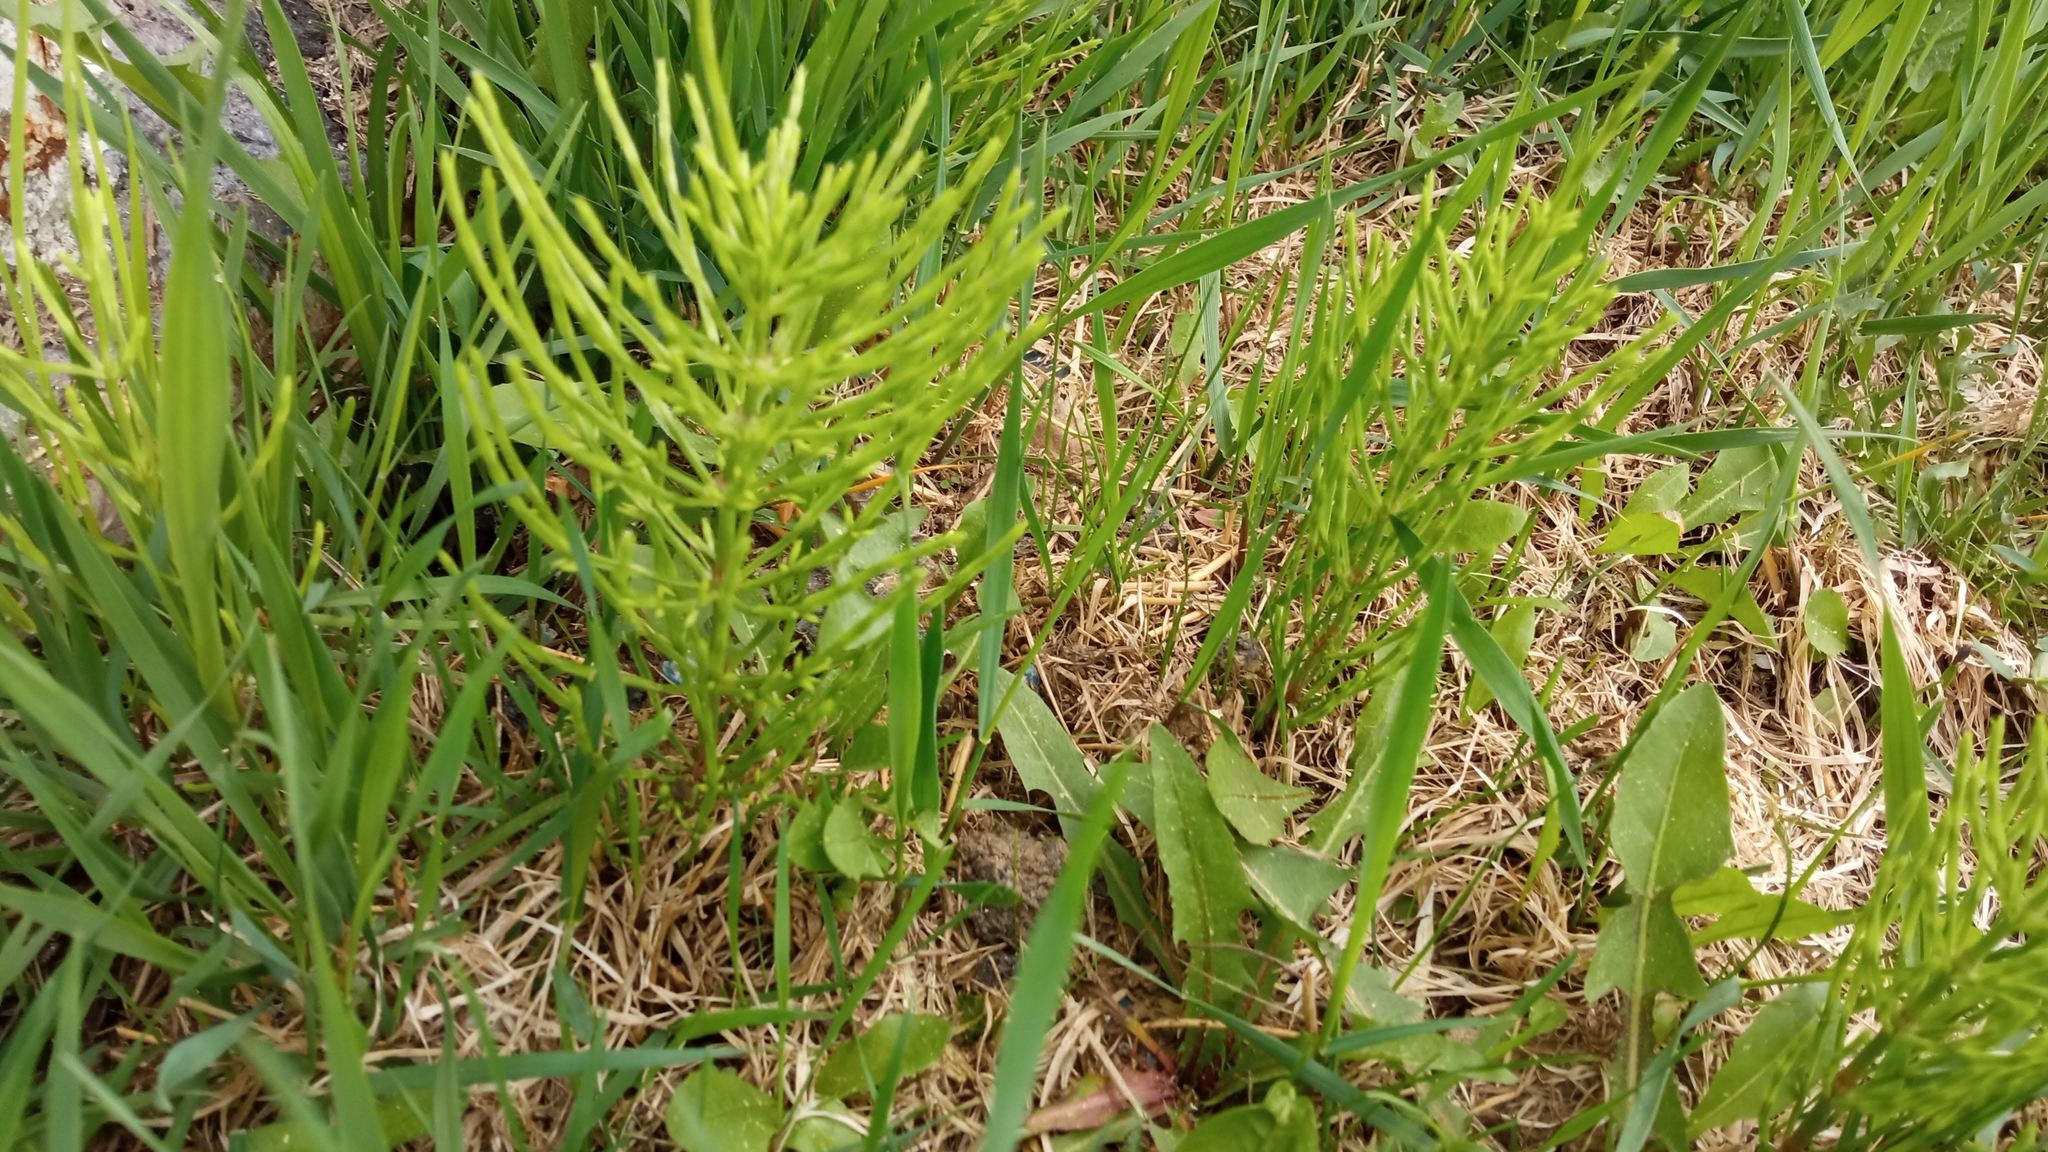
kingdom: Plantae
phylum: Tracheophyta
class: Polypodiopsida
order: Equisetales
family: Equisetaceae
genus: Equisetum
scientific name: Equisetum arvense
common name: Field horsetail
